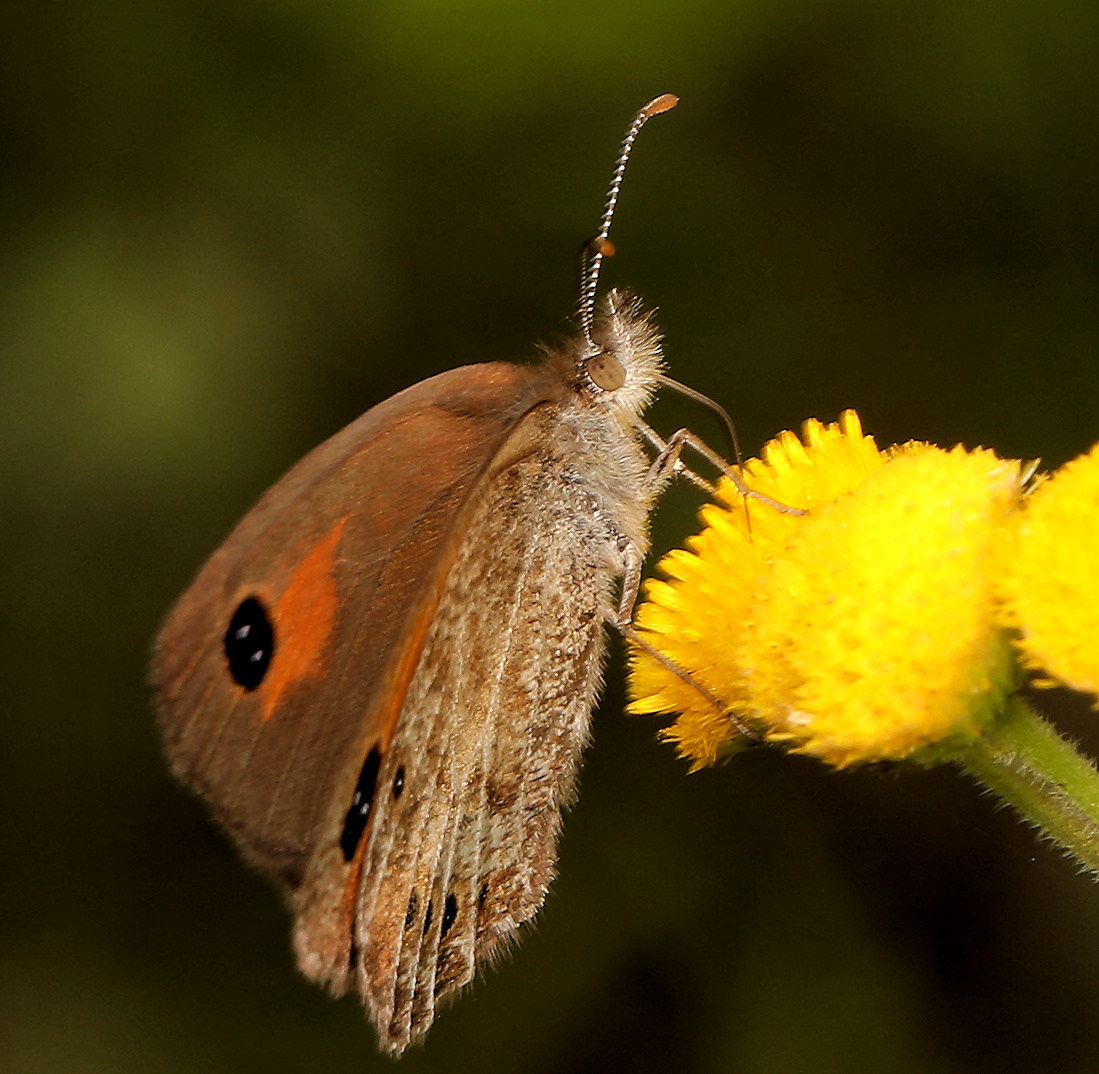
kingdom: Animalia
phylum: Arthropoda
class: Insecta
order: Lepidoptera
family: Nymphalidae
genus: Pseudonympha
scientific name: Pseudonympha magus
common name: Silver-bottom brown
